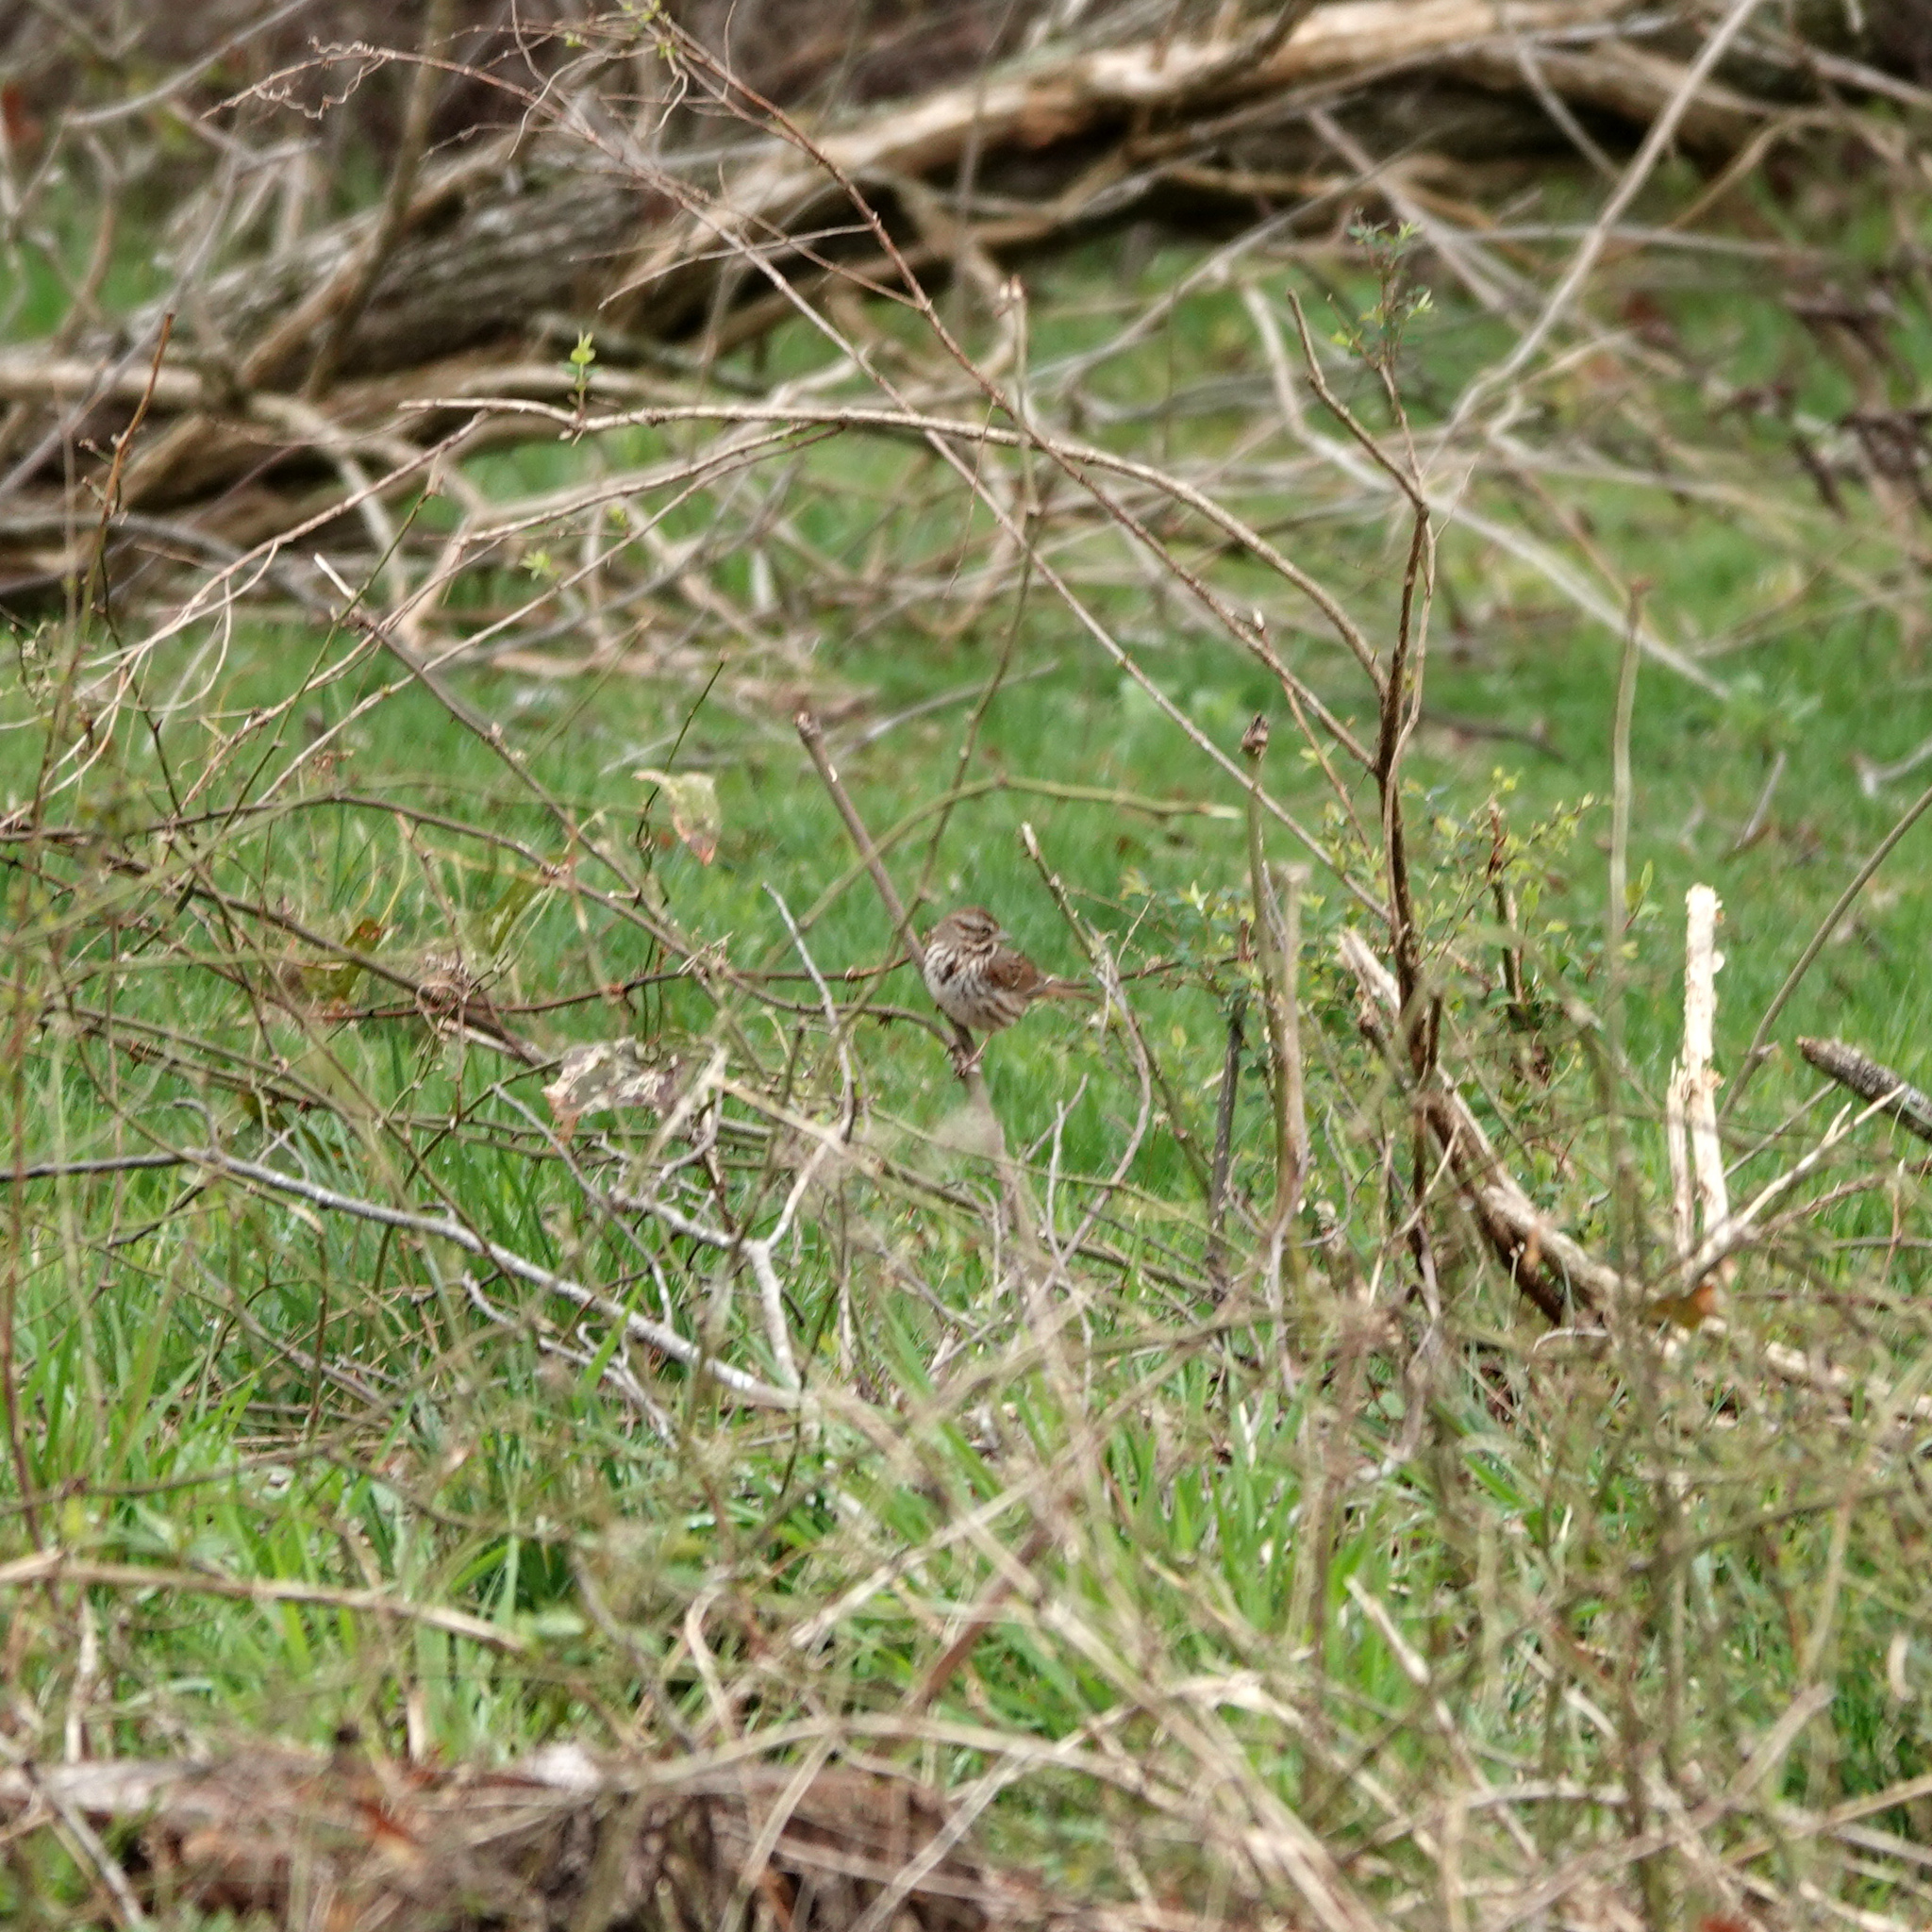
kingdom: Animalia
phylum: Chordata
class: Aves
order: Passeriformes
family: Passerellidae
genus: Melospiza
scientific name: Melospiza melodia
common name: Song sparrow
